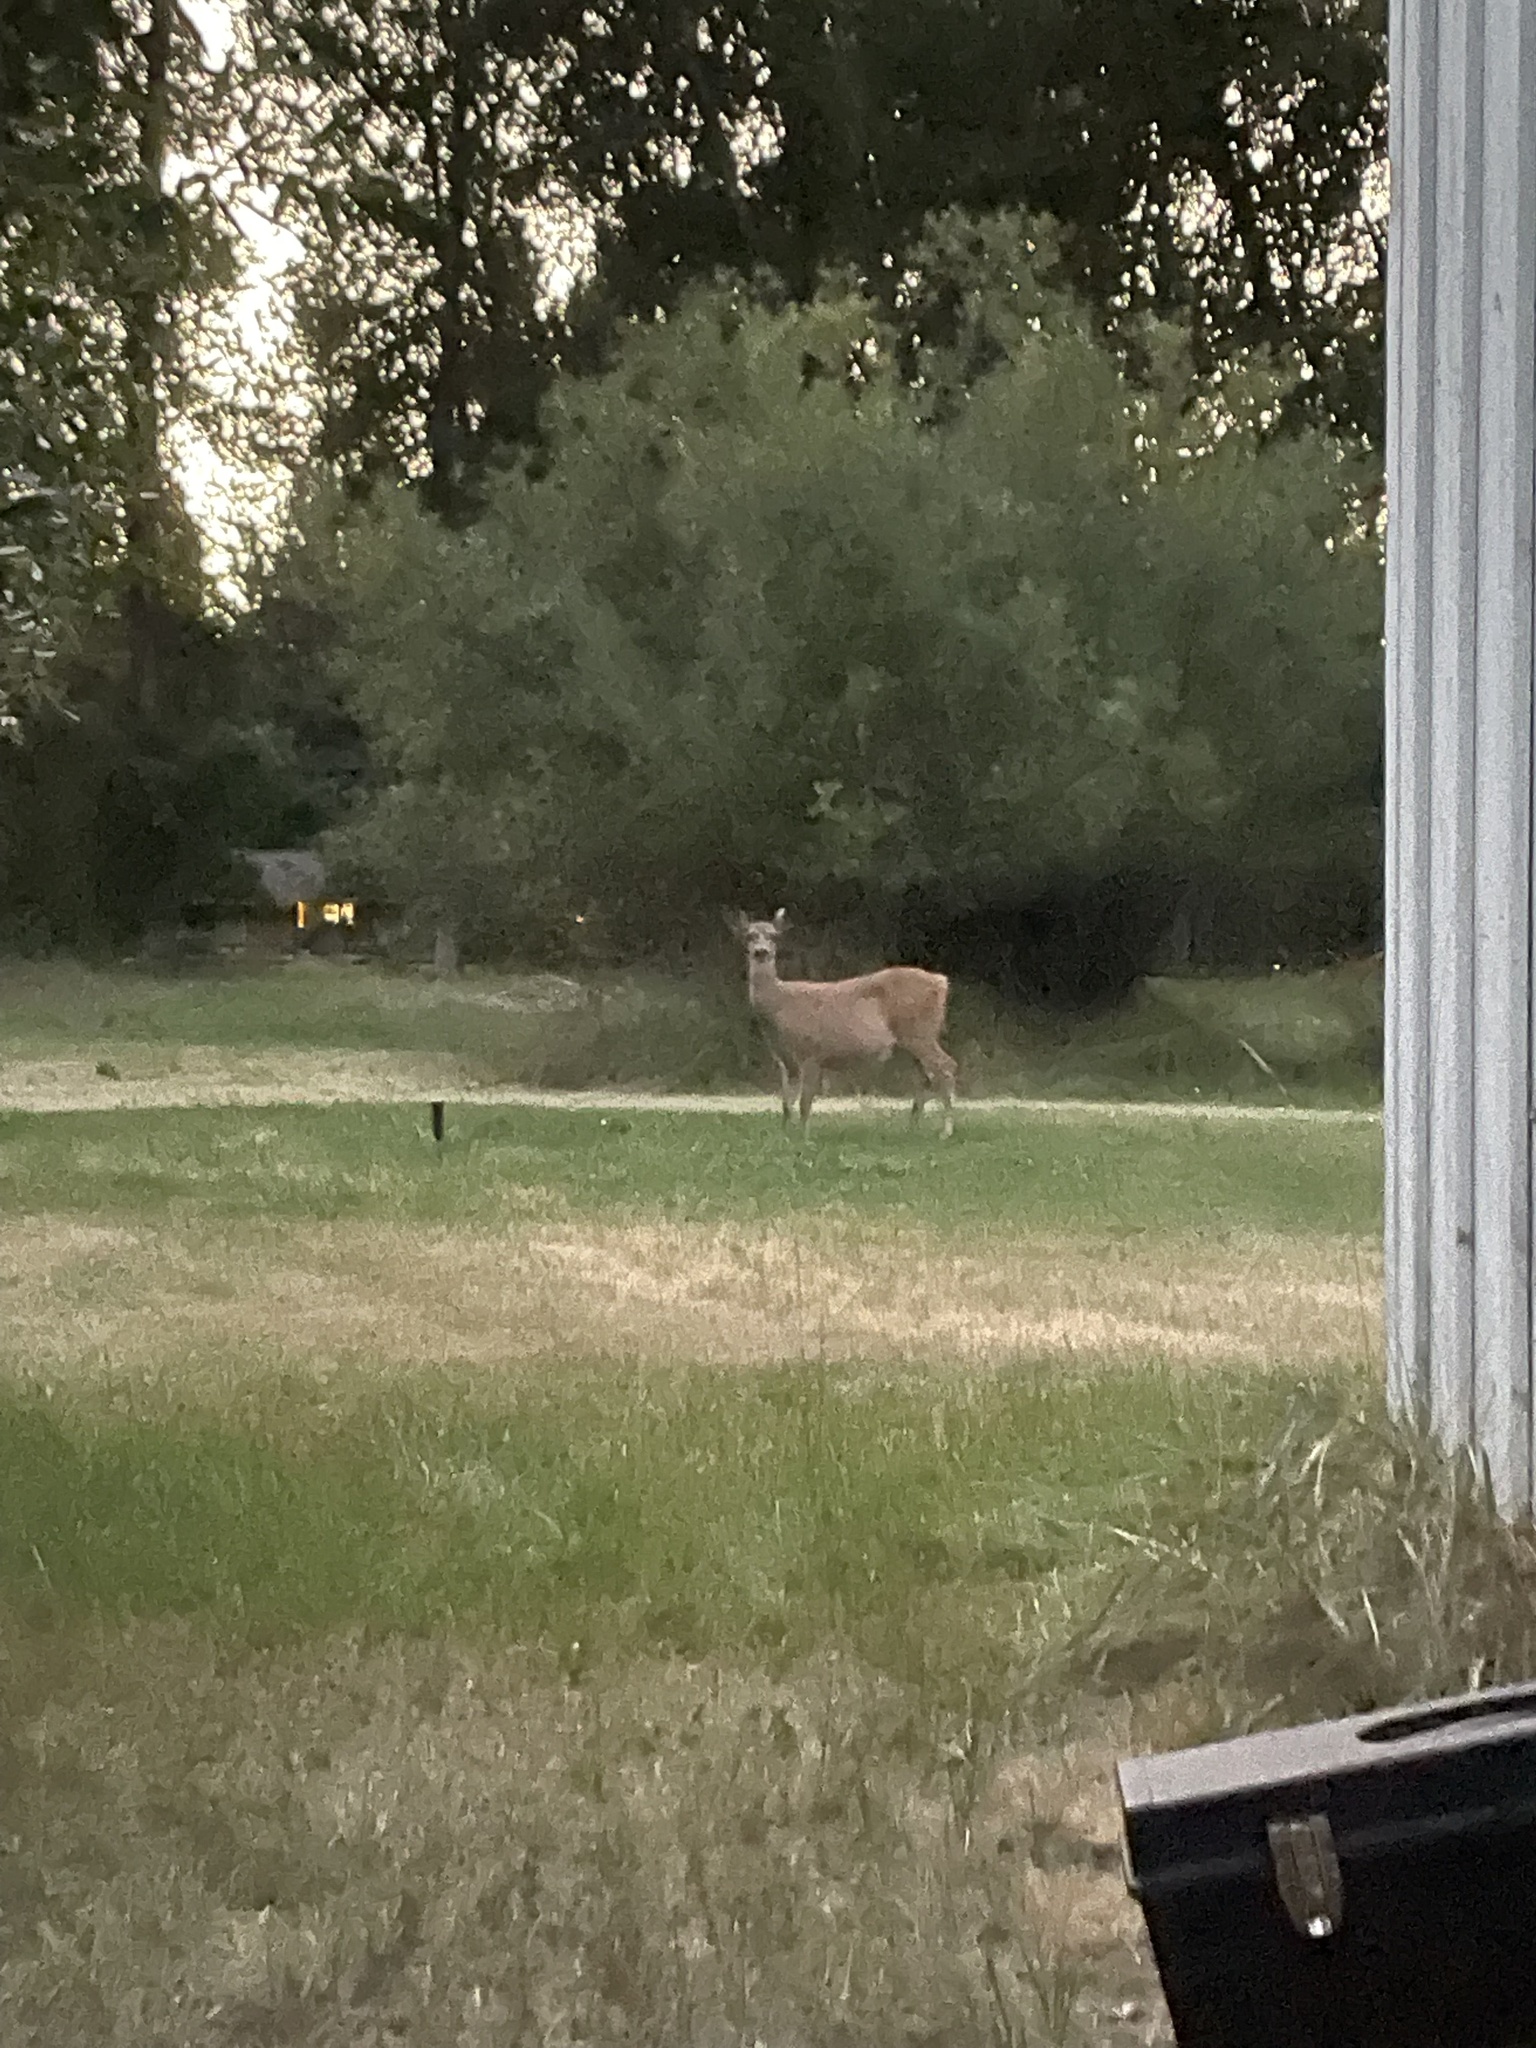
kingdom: Animalia
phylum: Chordata
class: Mammalia
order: Artiodactyla
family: Cervidae
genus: Odocoileus
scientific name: Odocoileus hemionus
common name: Mule deer
